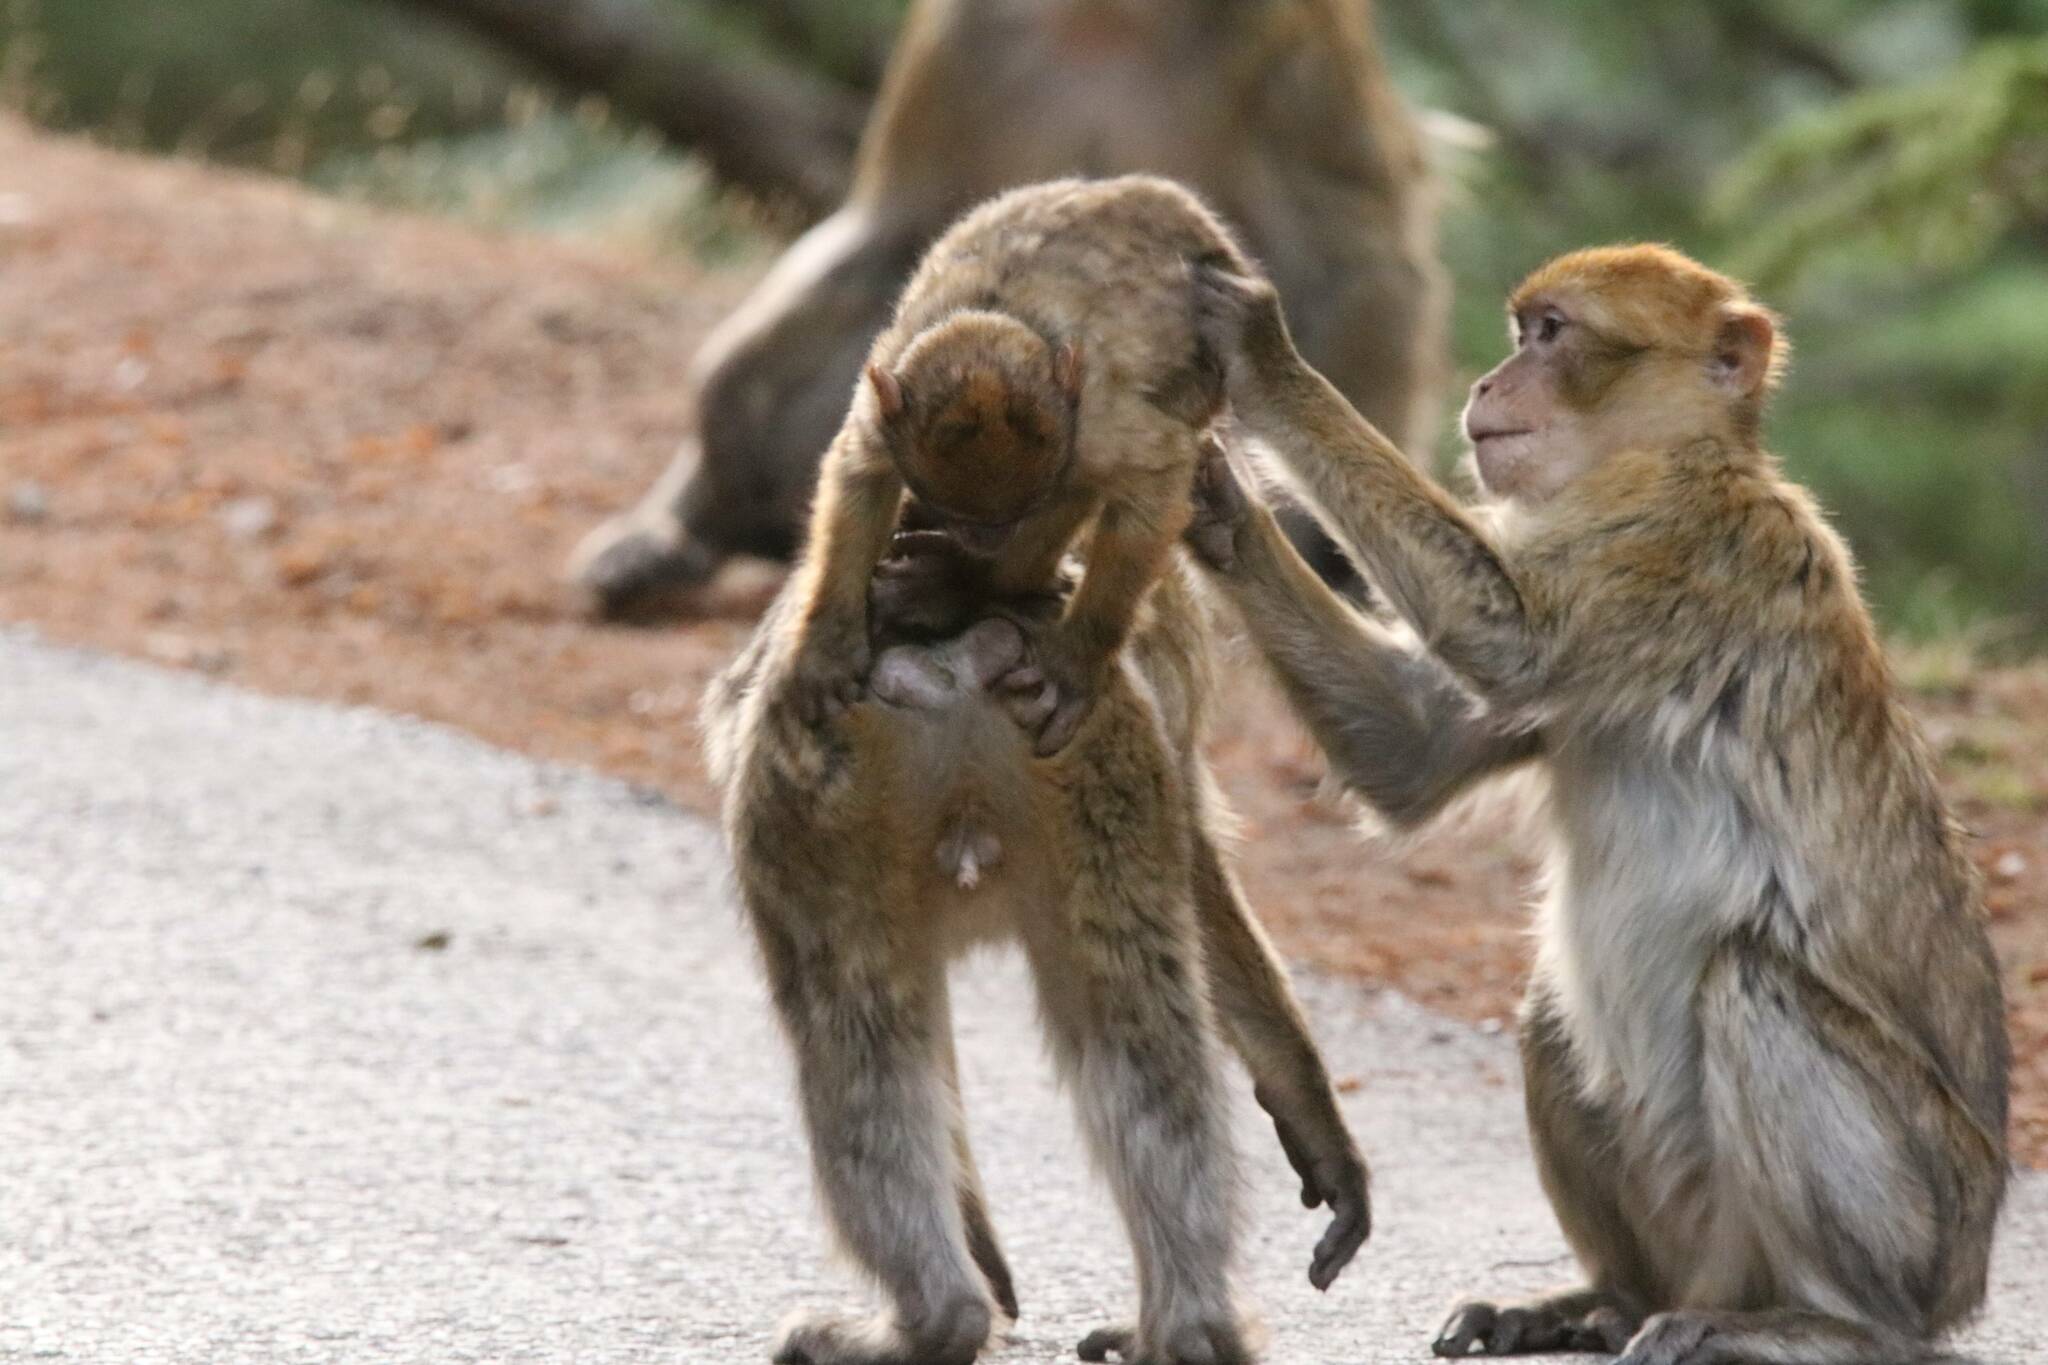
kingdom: Animalia
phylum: Chordata
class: Mammalia
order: Primates
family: Cercopithecidae
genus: Macaca
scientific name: Macaca sylvanus
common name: Barbary macaque
